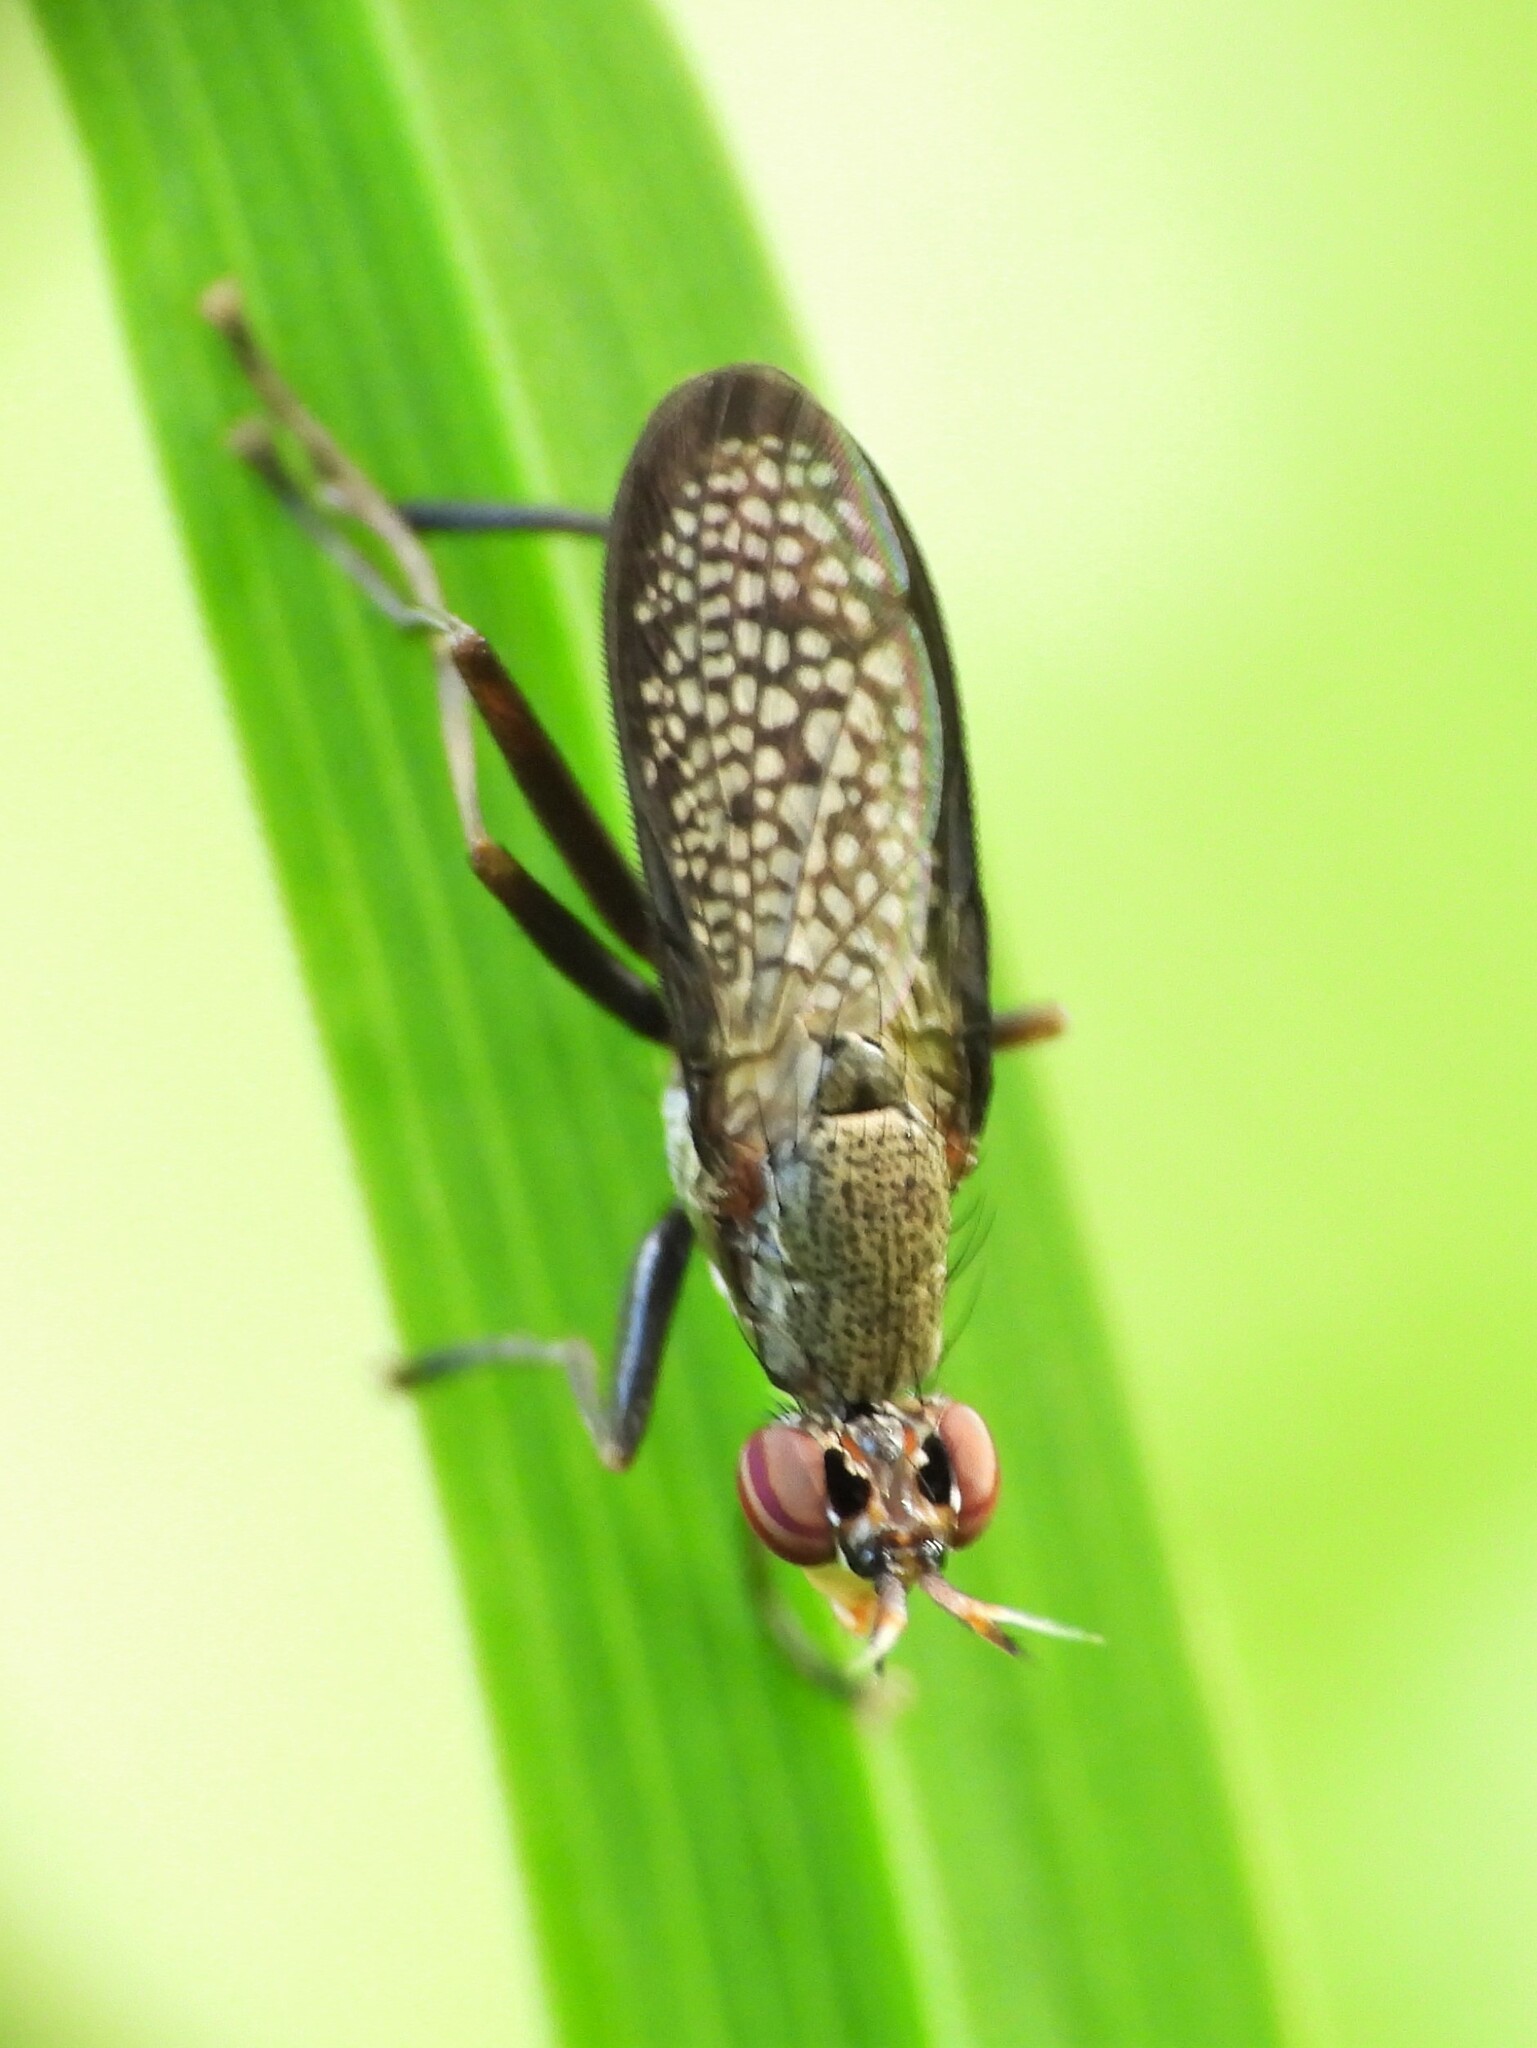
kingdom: Animalia
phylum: Arthropoda
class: Insecta
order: Diptera
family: Sciomyzidae
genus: Coremacera
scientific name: Coremacera marginata
